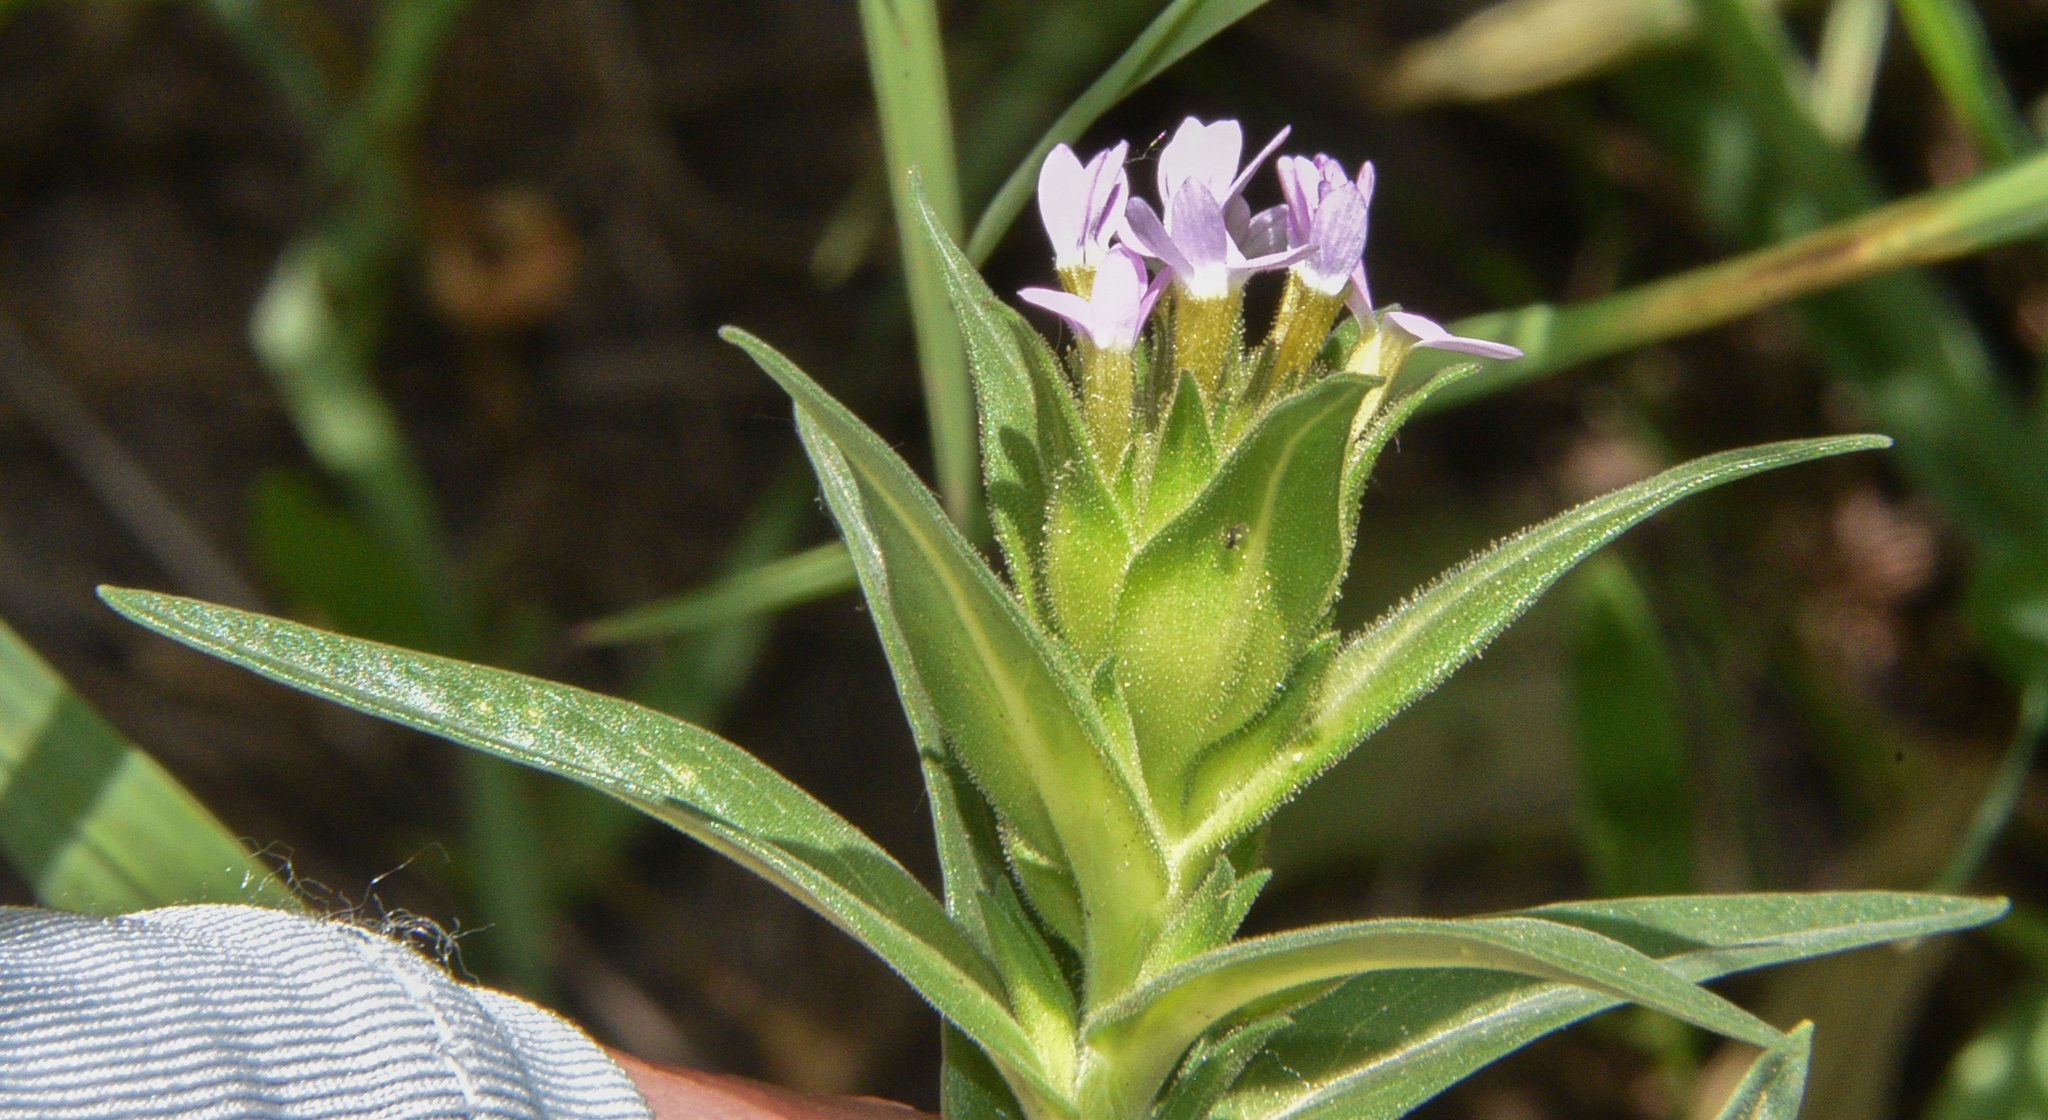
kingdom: Plantae
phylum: Tracheophyta
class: Magnoliopsida
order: Ericales
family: Polemoniaceae
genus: Collomia
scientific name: Collomia linearis
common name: Tiny trumpet
